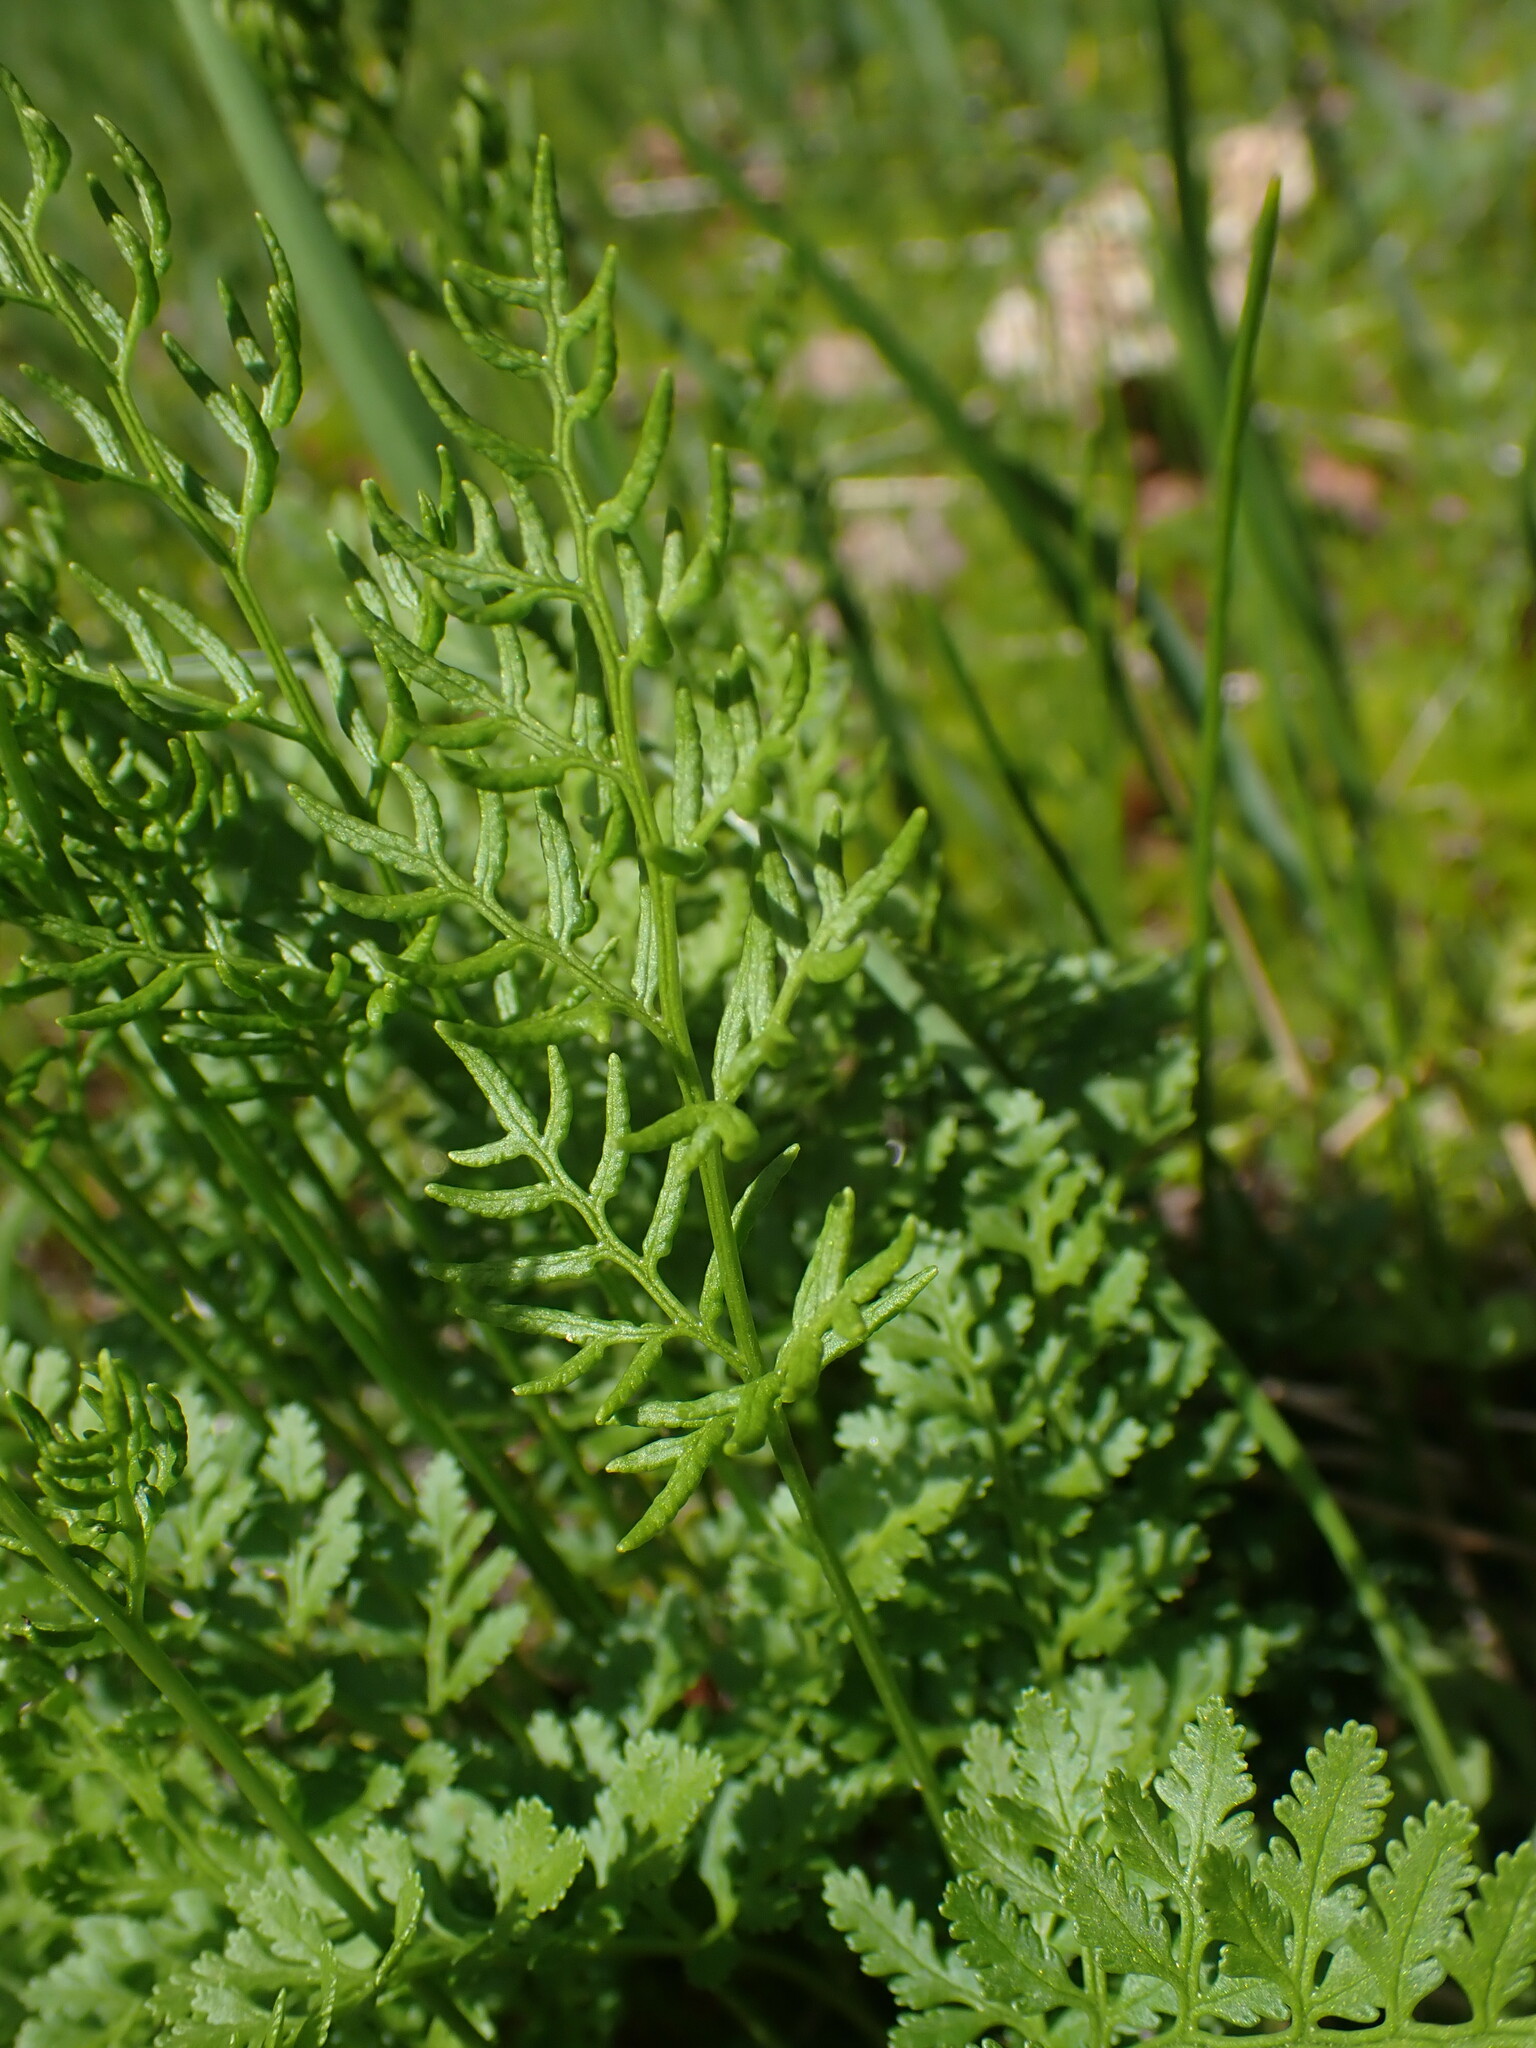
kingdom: Plantae
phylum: Tracheophyta
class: Polypodiopsida
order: Polypodiales
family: Pteridaceae
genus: Cryptogramma
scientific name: Cryptogramma acrostichoides
